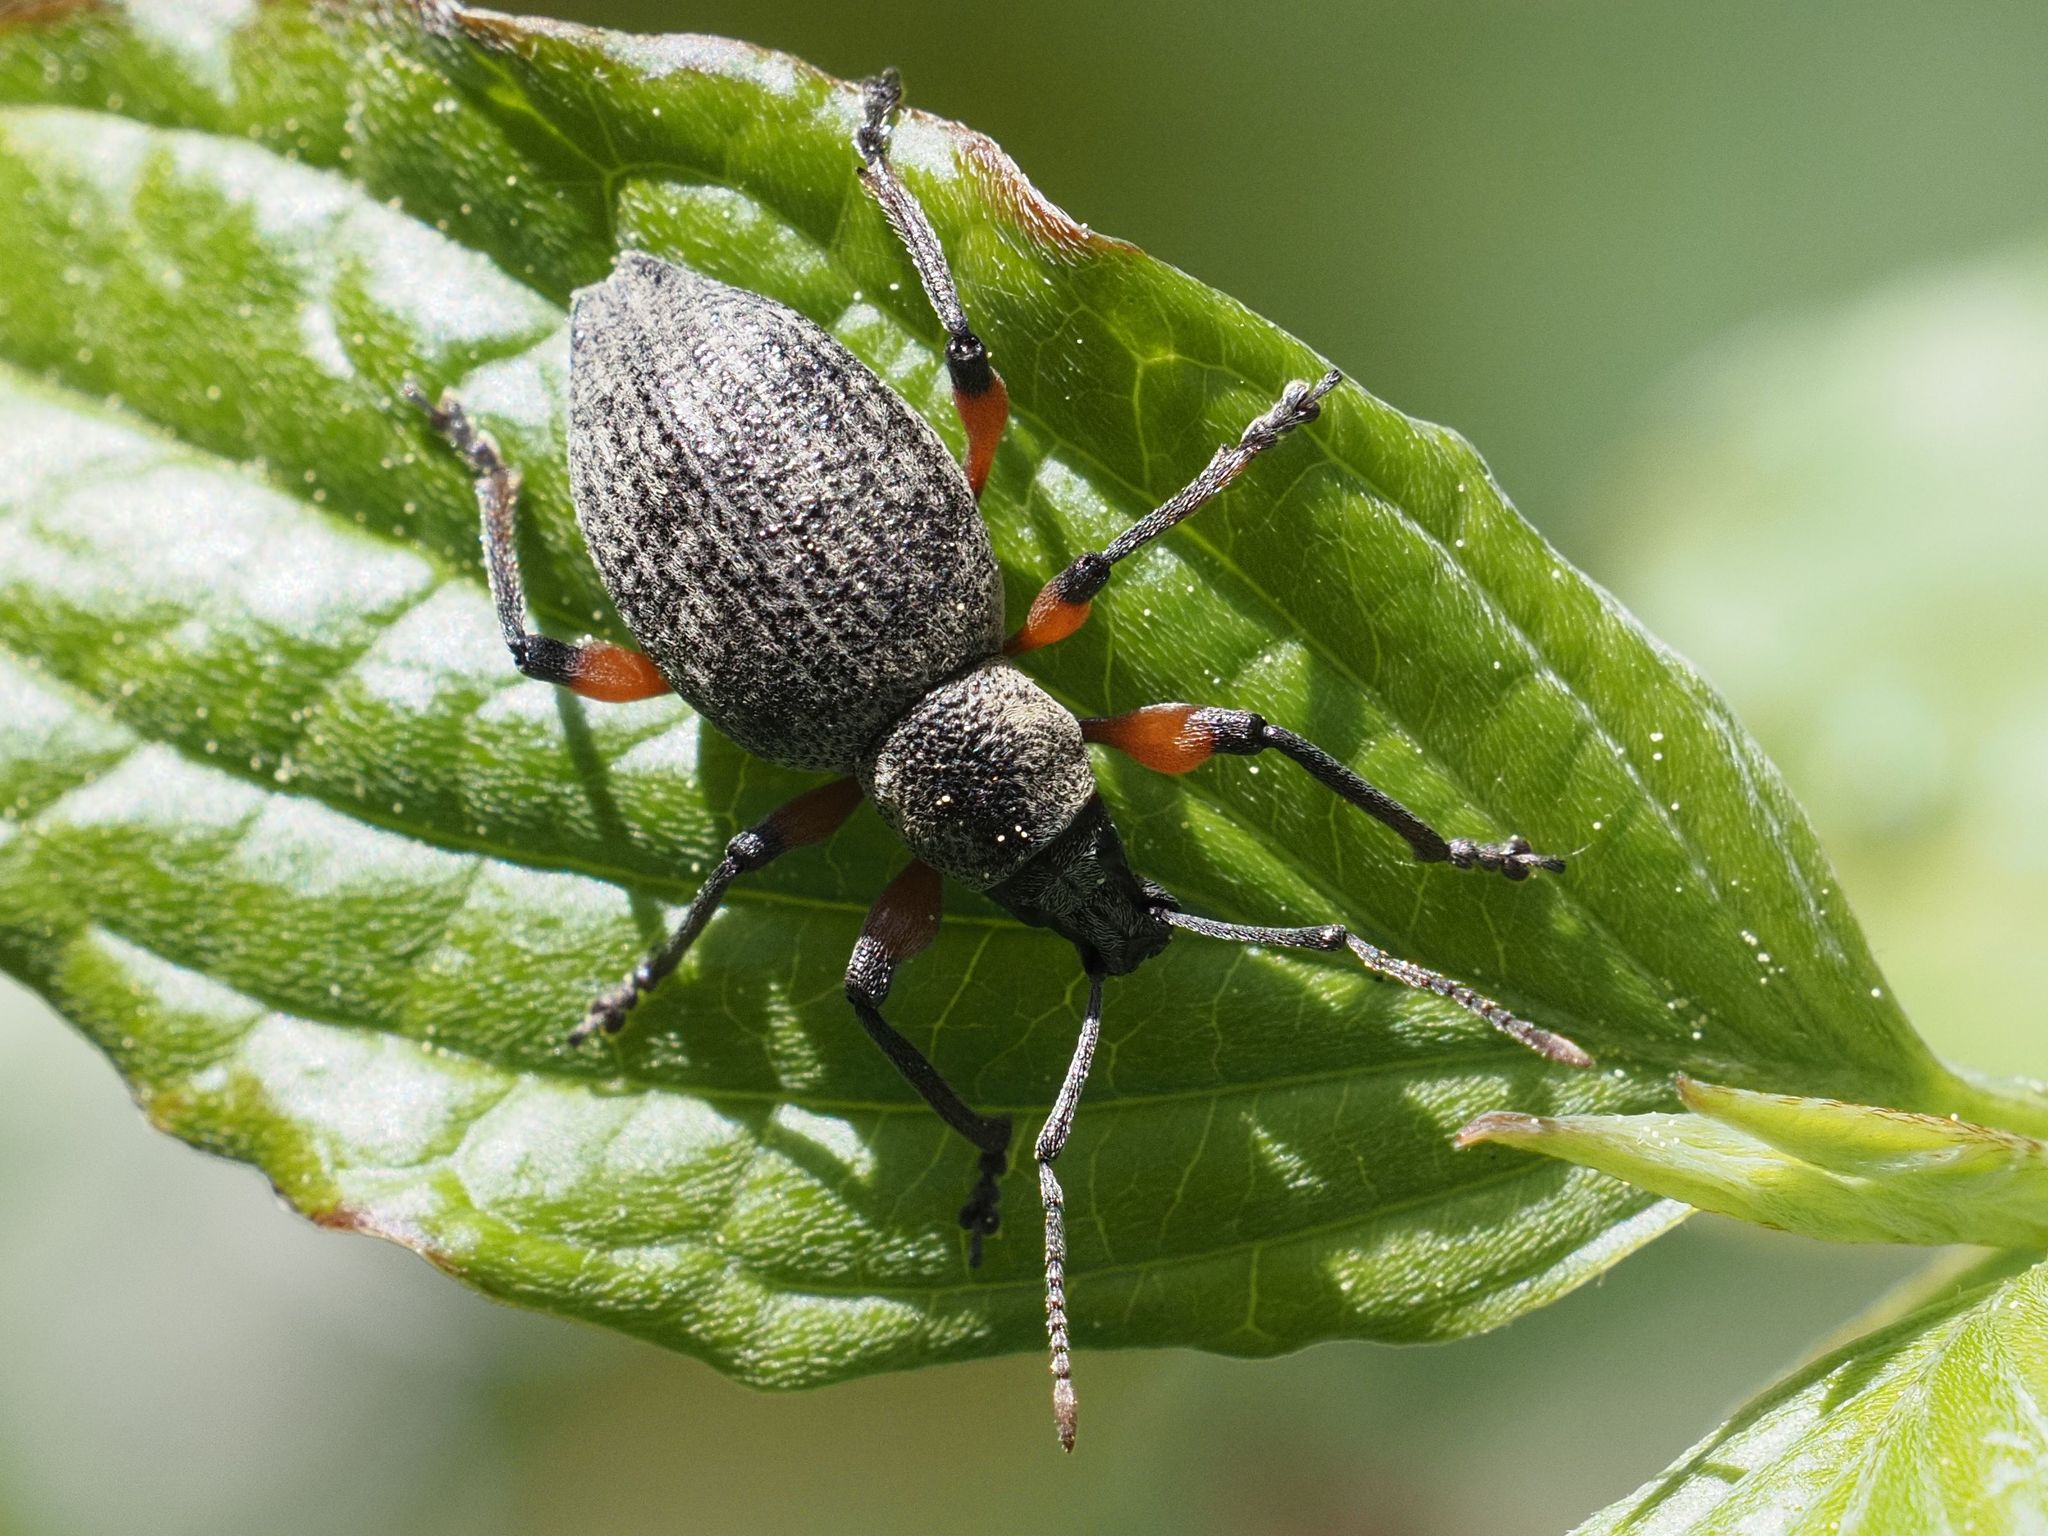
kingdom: Animalia
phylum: Arthropoda
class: Insecta
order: Coleoptera
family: Curculionidae
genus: Otiorhynchus
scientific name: Otiorhynchus sensitivus
